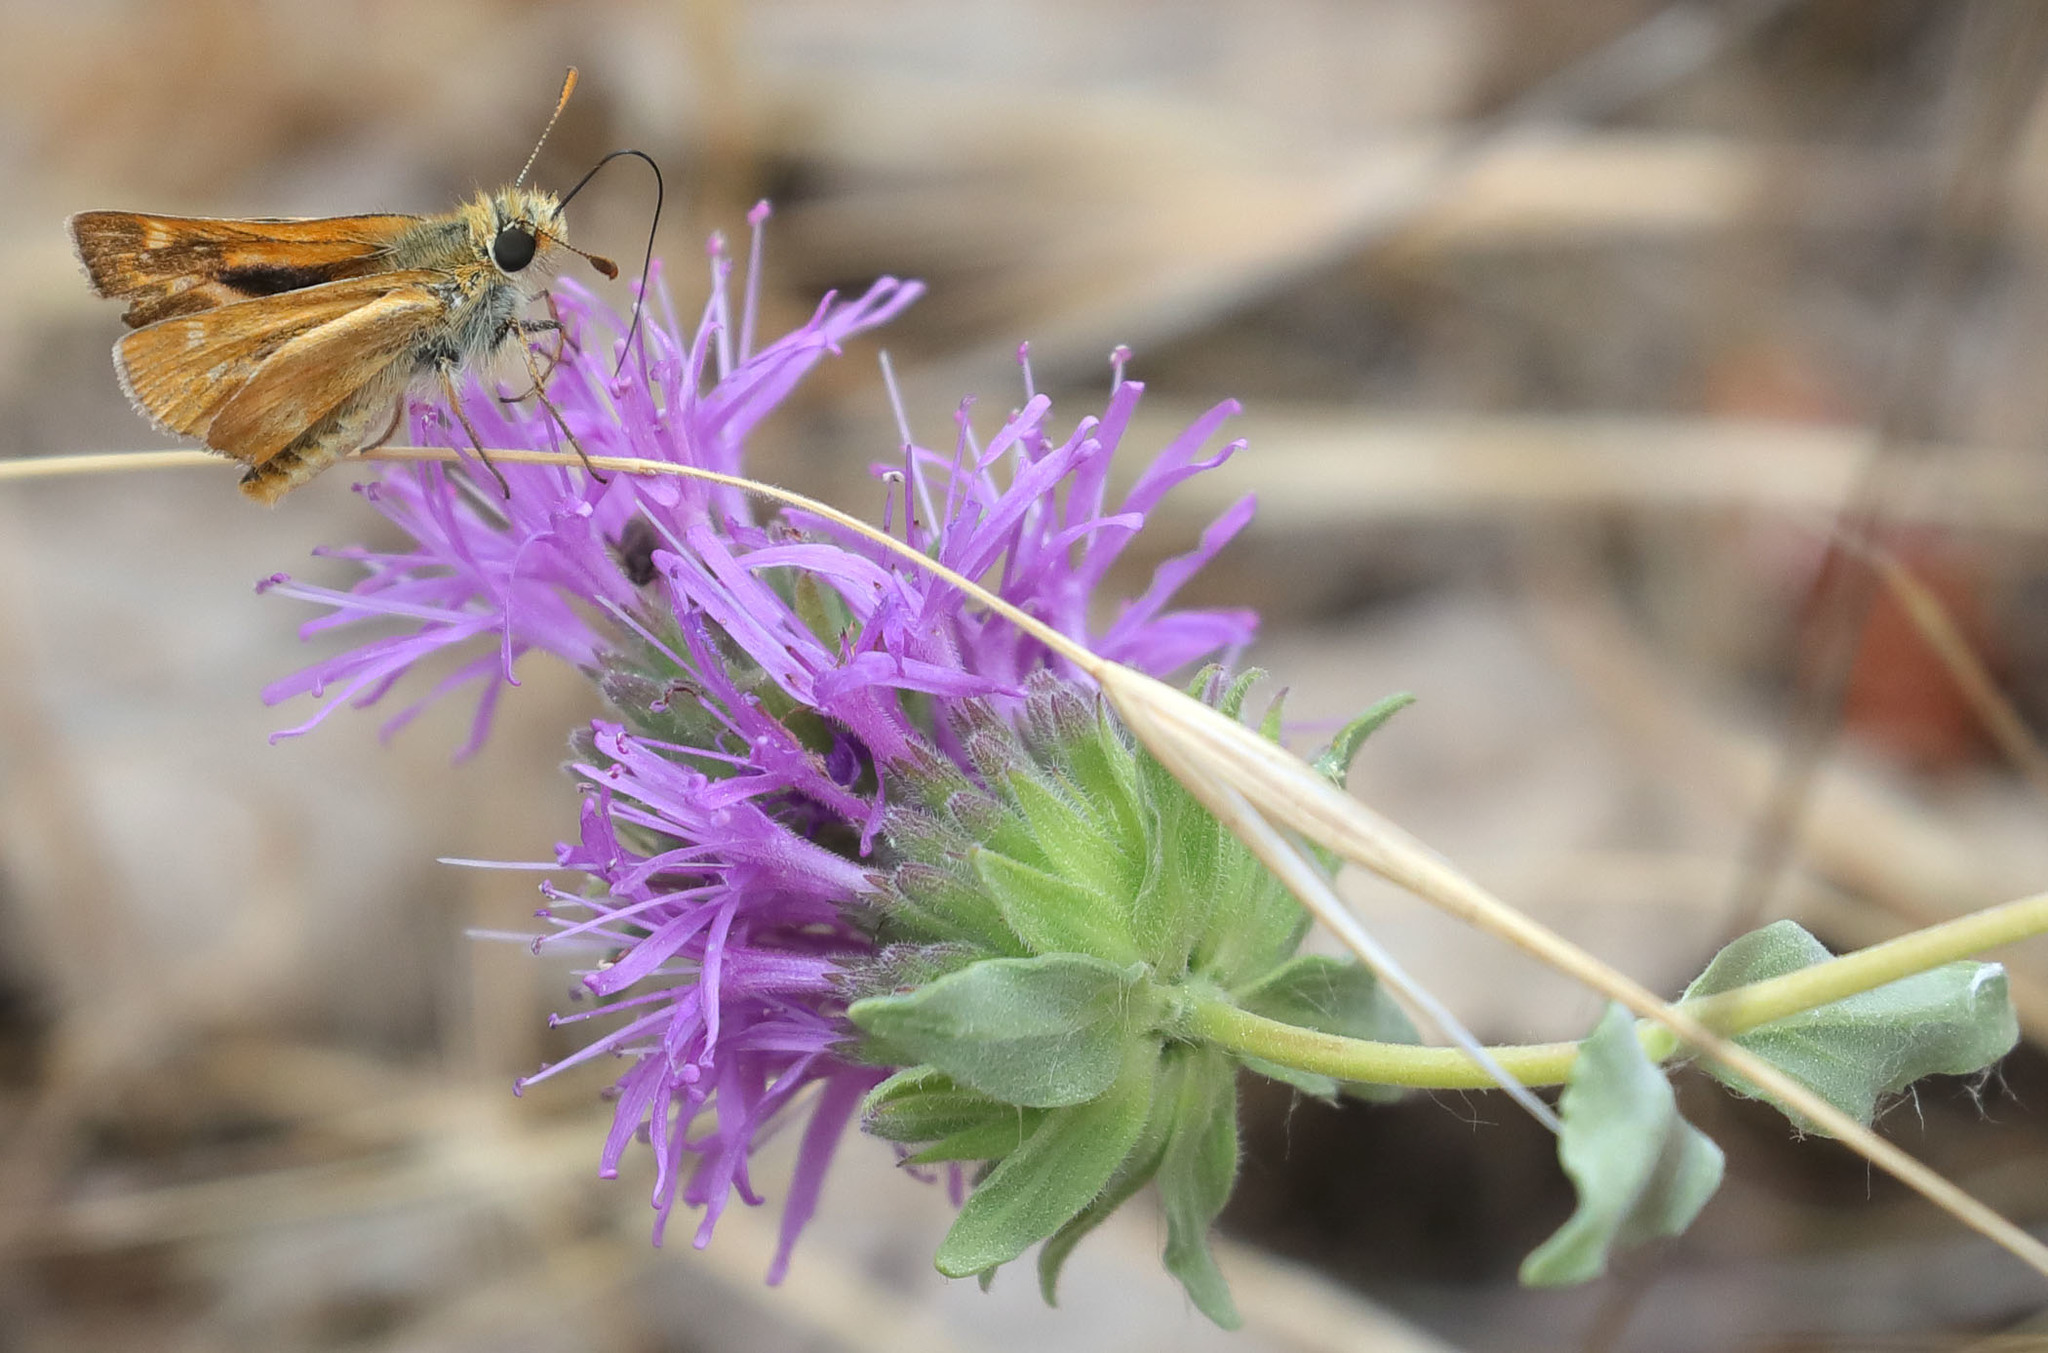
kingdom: Animalia
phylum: Arthropoda
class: Insecta
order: Lepidoptera
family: Hesperiidae
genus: Ochlodes
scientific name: Ochlodes agricola
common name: Rural skipper
